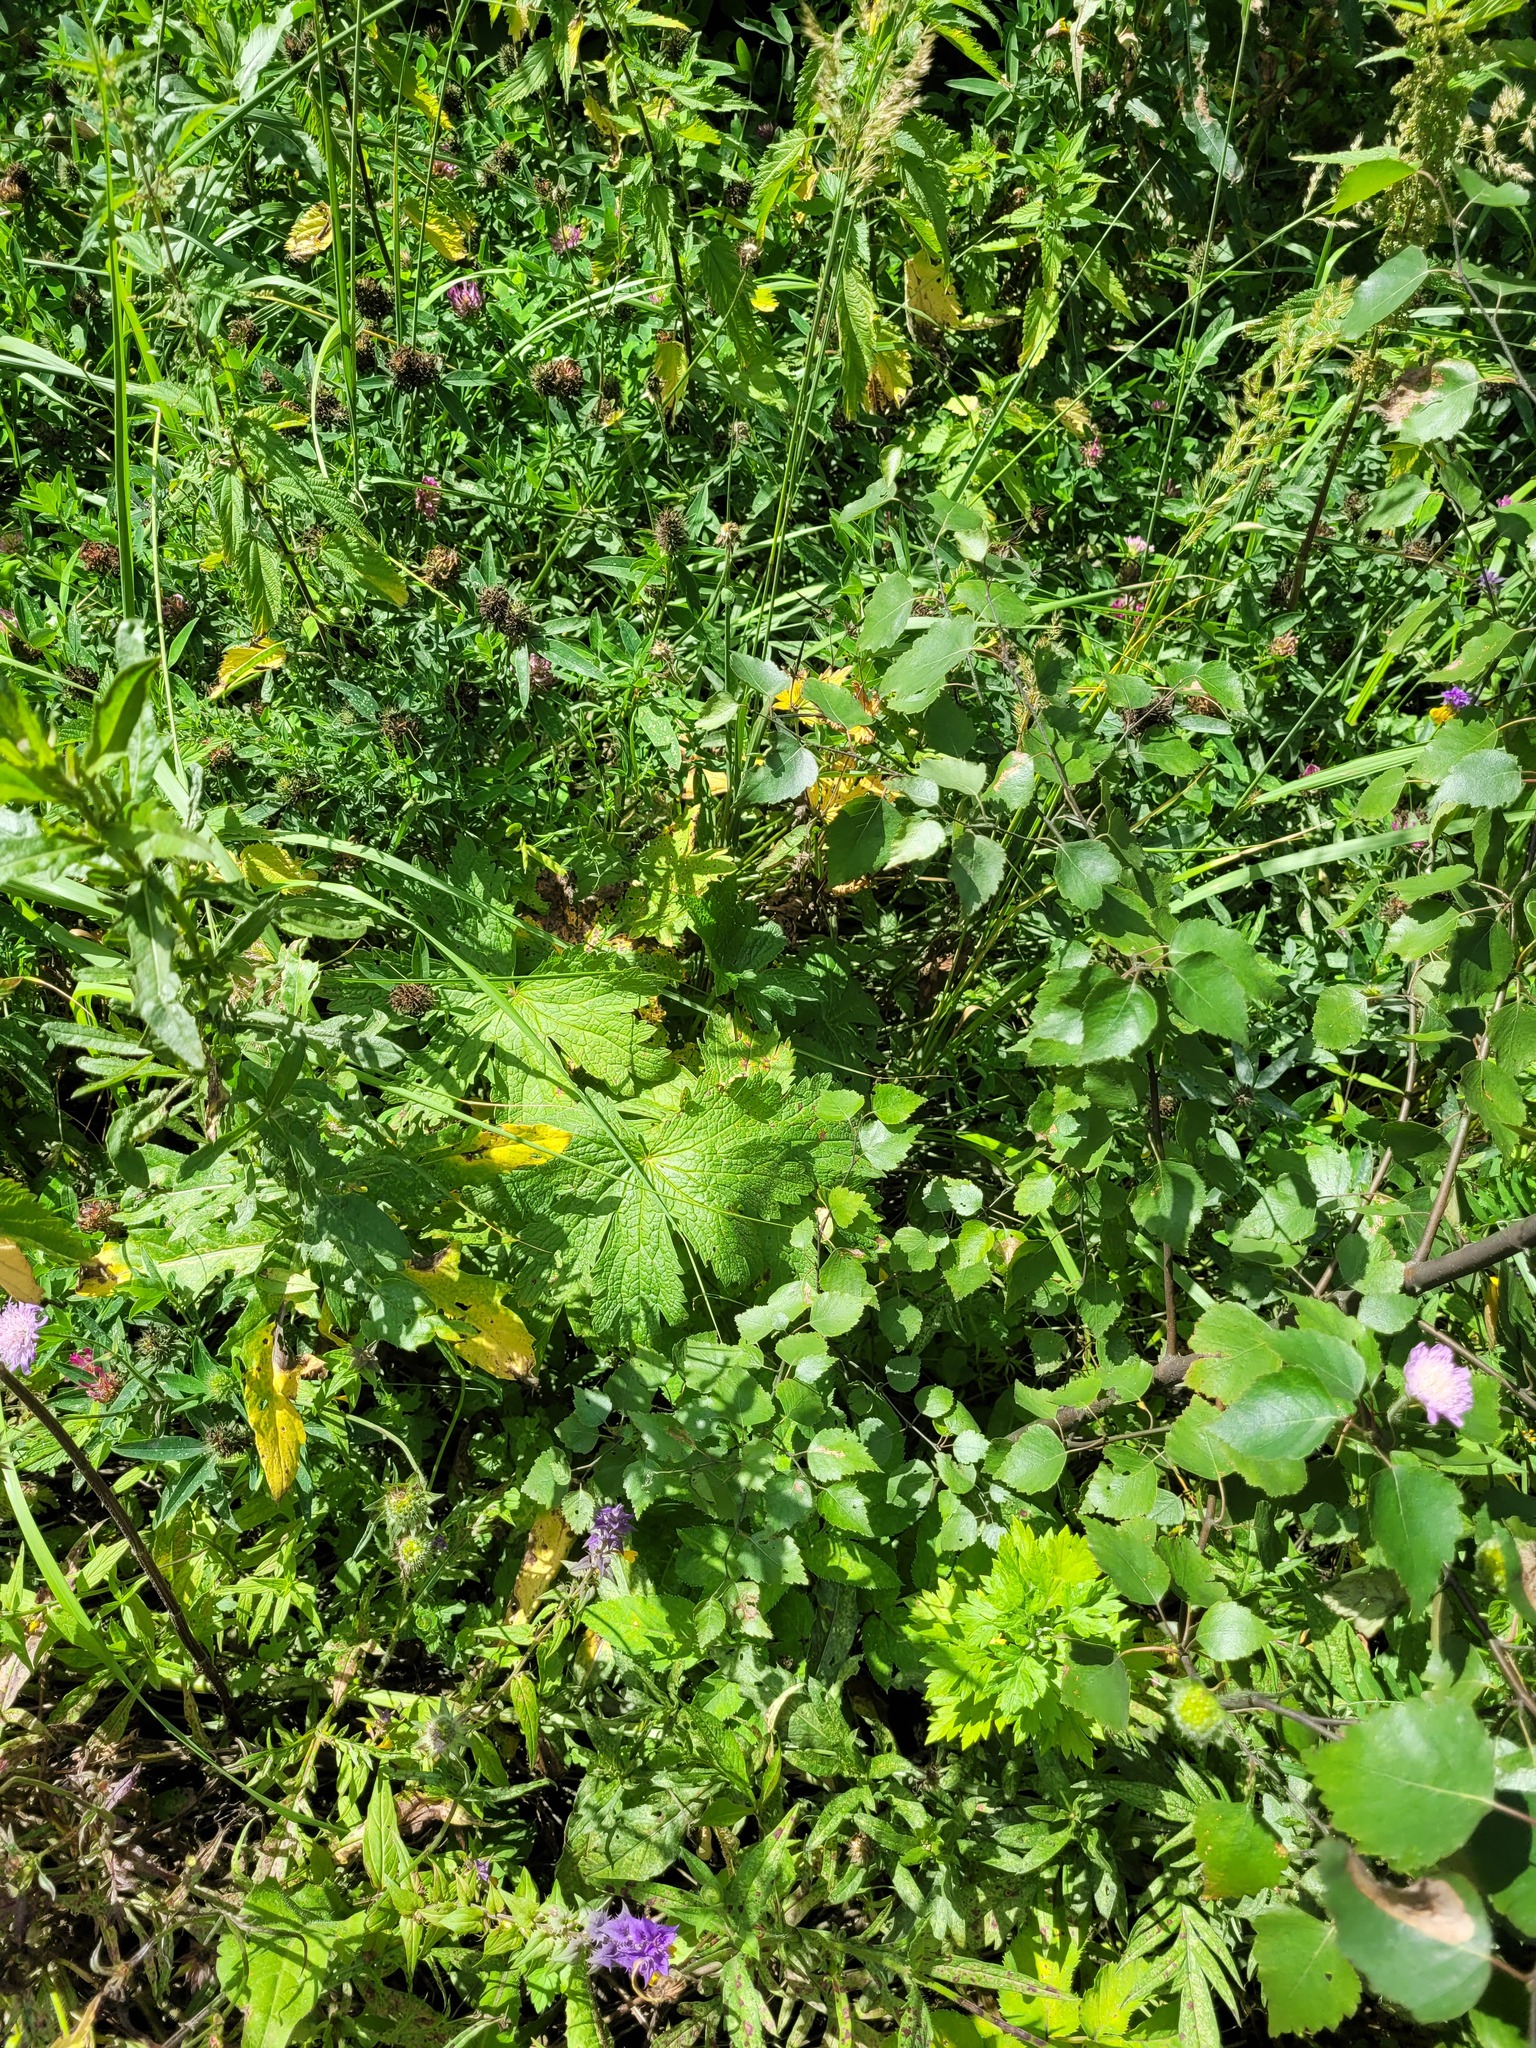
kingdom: Plantae
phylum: Tracheophyta
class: Magnoliopsida
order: Geraniales
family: Geraniaceae
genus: Geranium
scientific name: Geranium sylvaticum
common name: Wood crane's-bill
